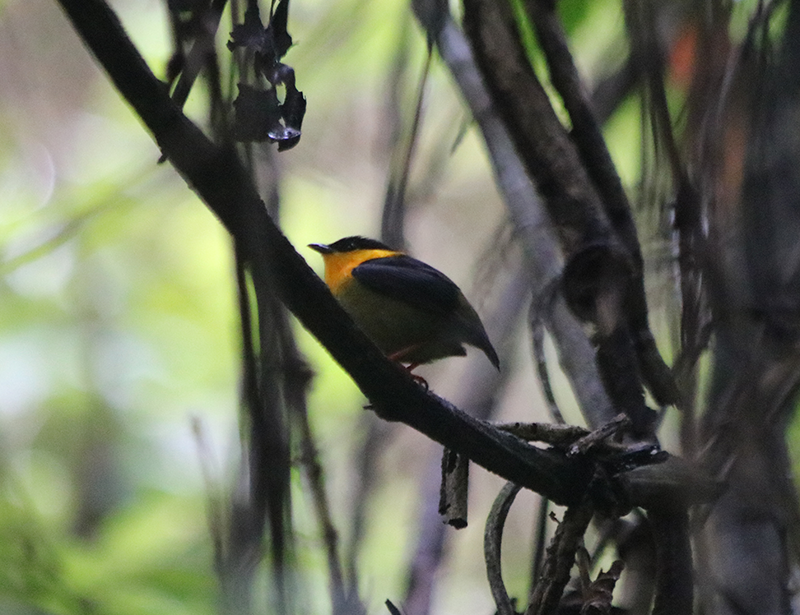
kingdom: Animalia
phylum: Chordata
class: Aves
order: Passeriformes
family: Pipridae
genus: Manacus
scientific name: Manacus vitellinus
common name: Golden-collared manakin
